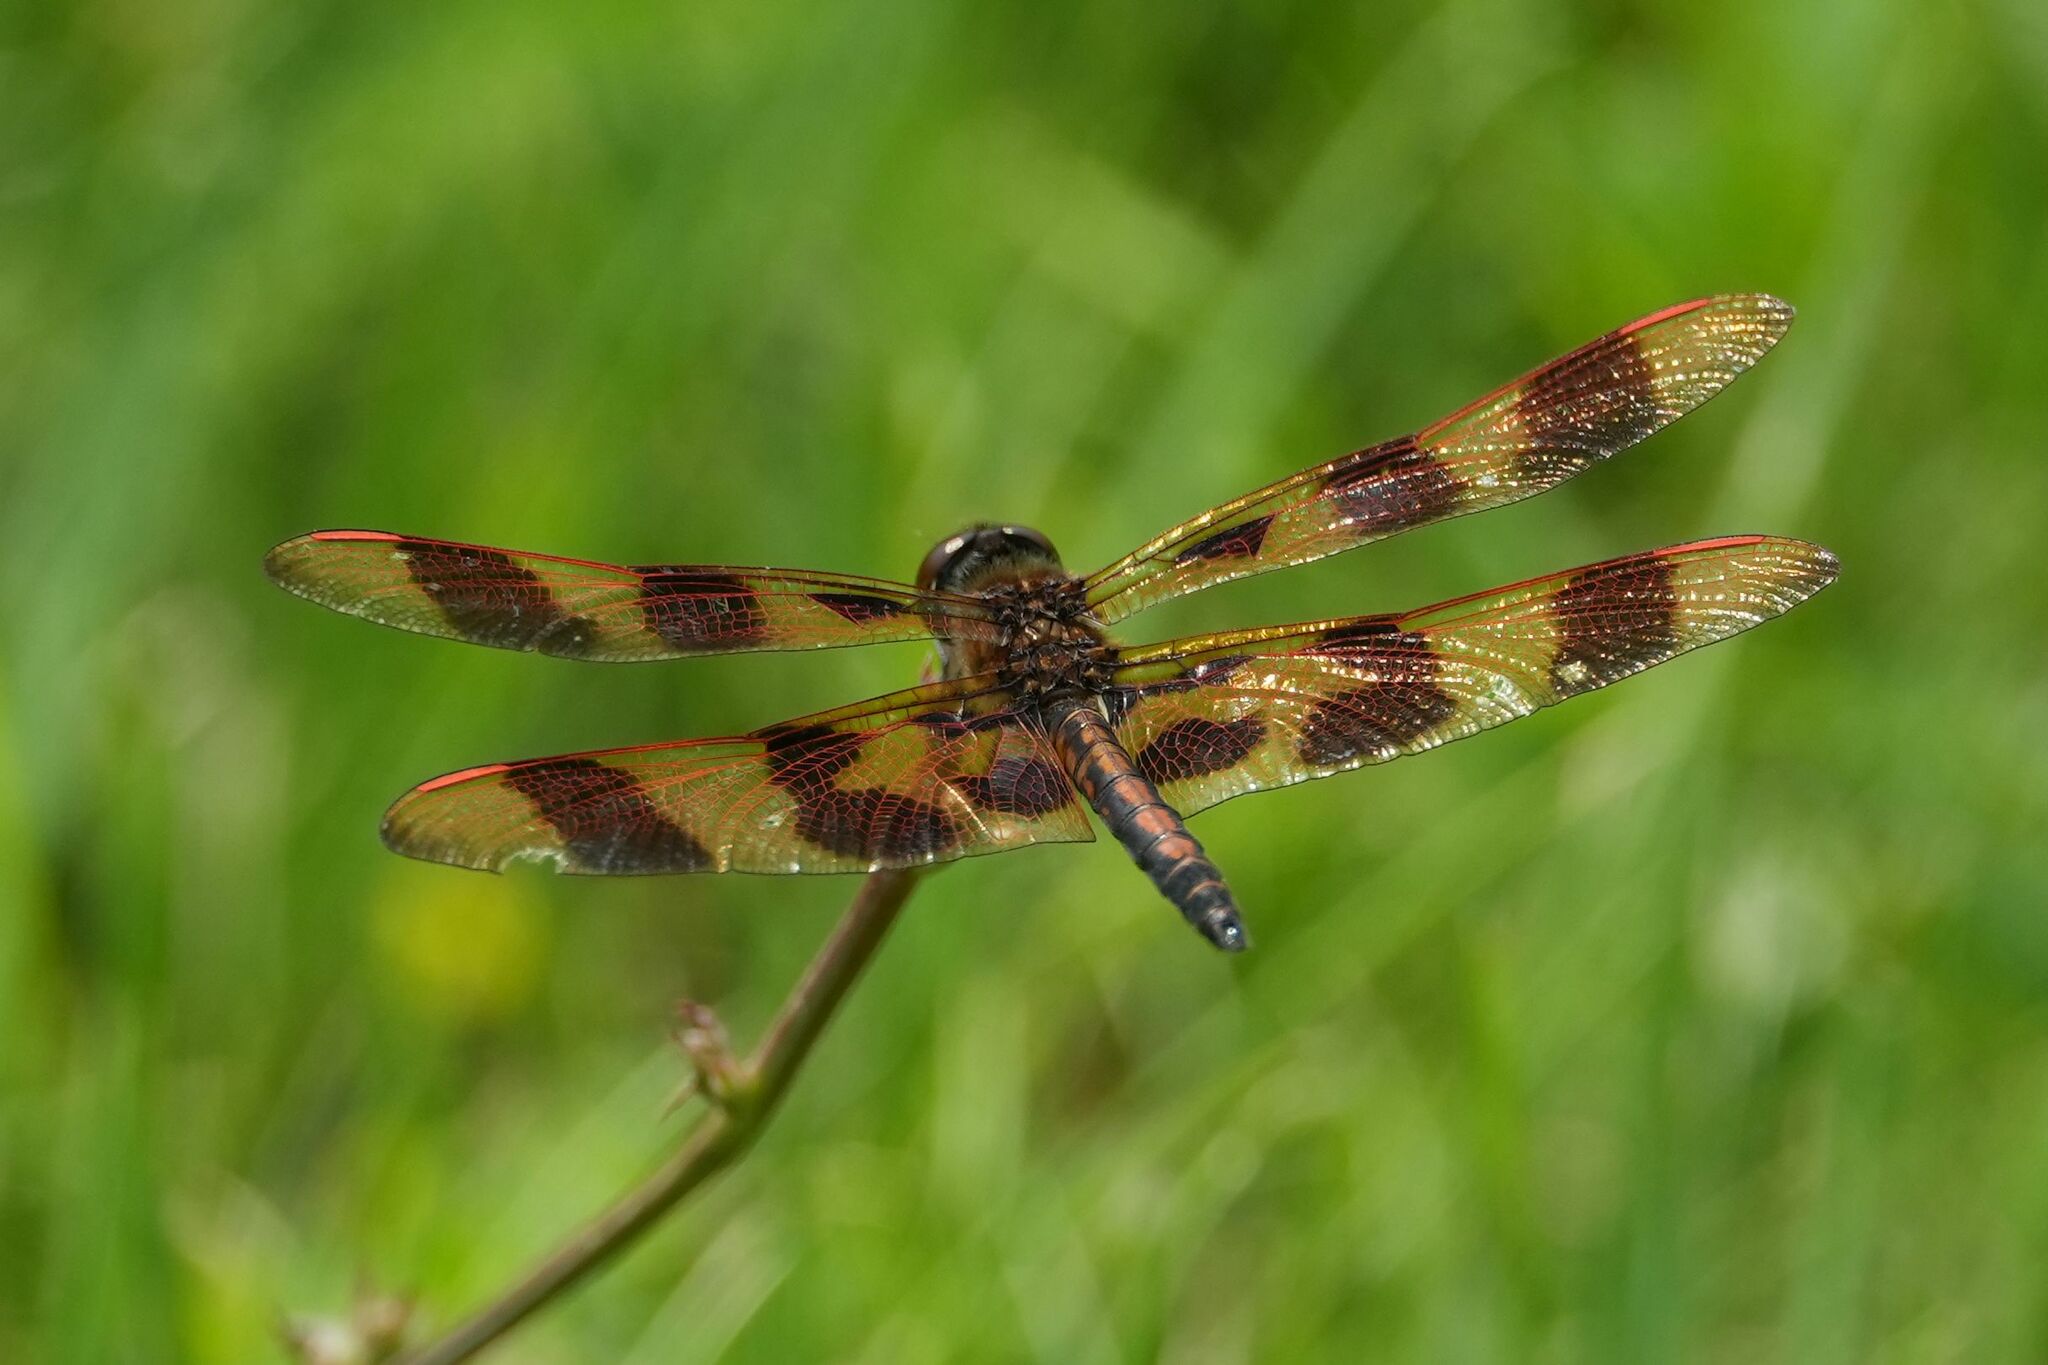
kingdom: Animalia
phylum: Arthropoda
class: Insecta
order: Odonata
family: Libellulidae
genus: Celithemis
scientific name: Celithemis eponina
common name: Halloween pennant
